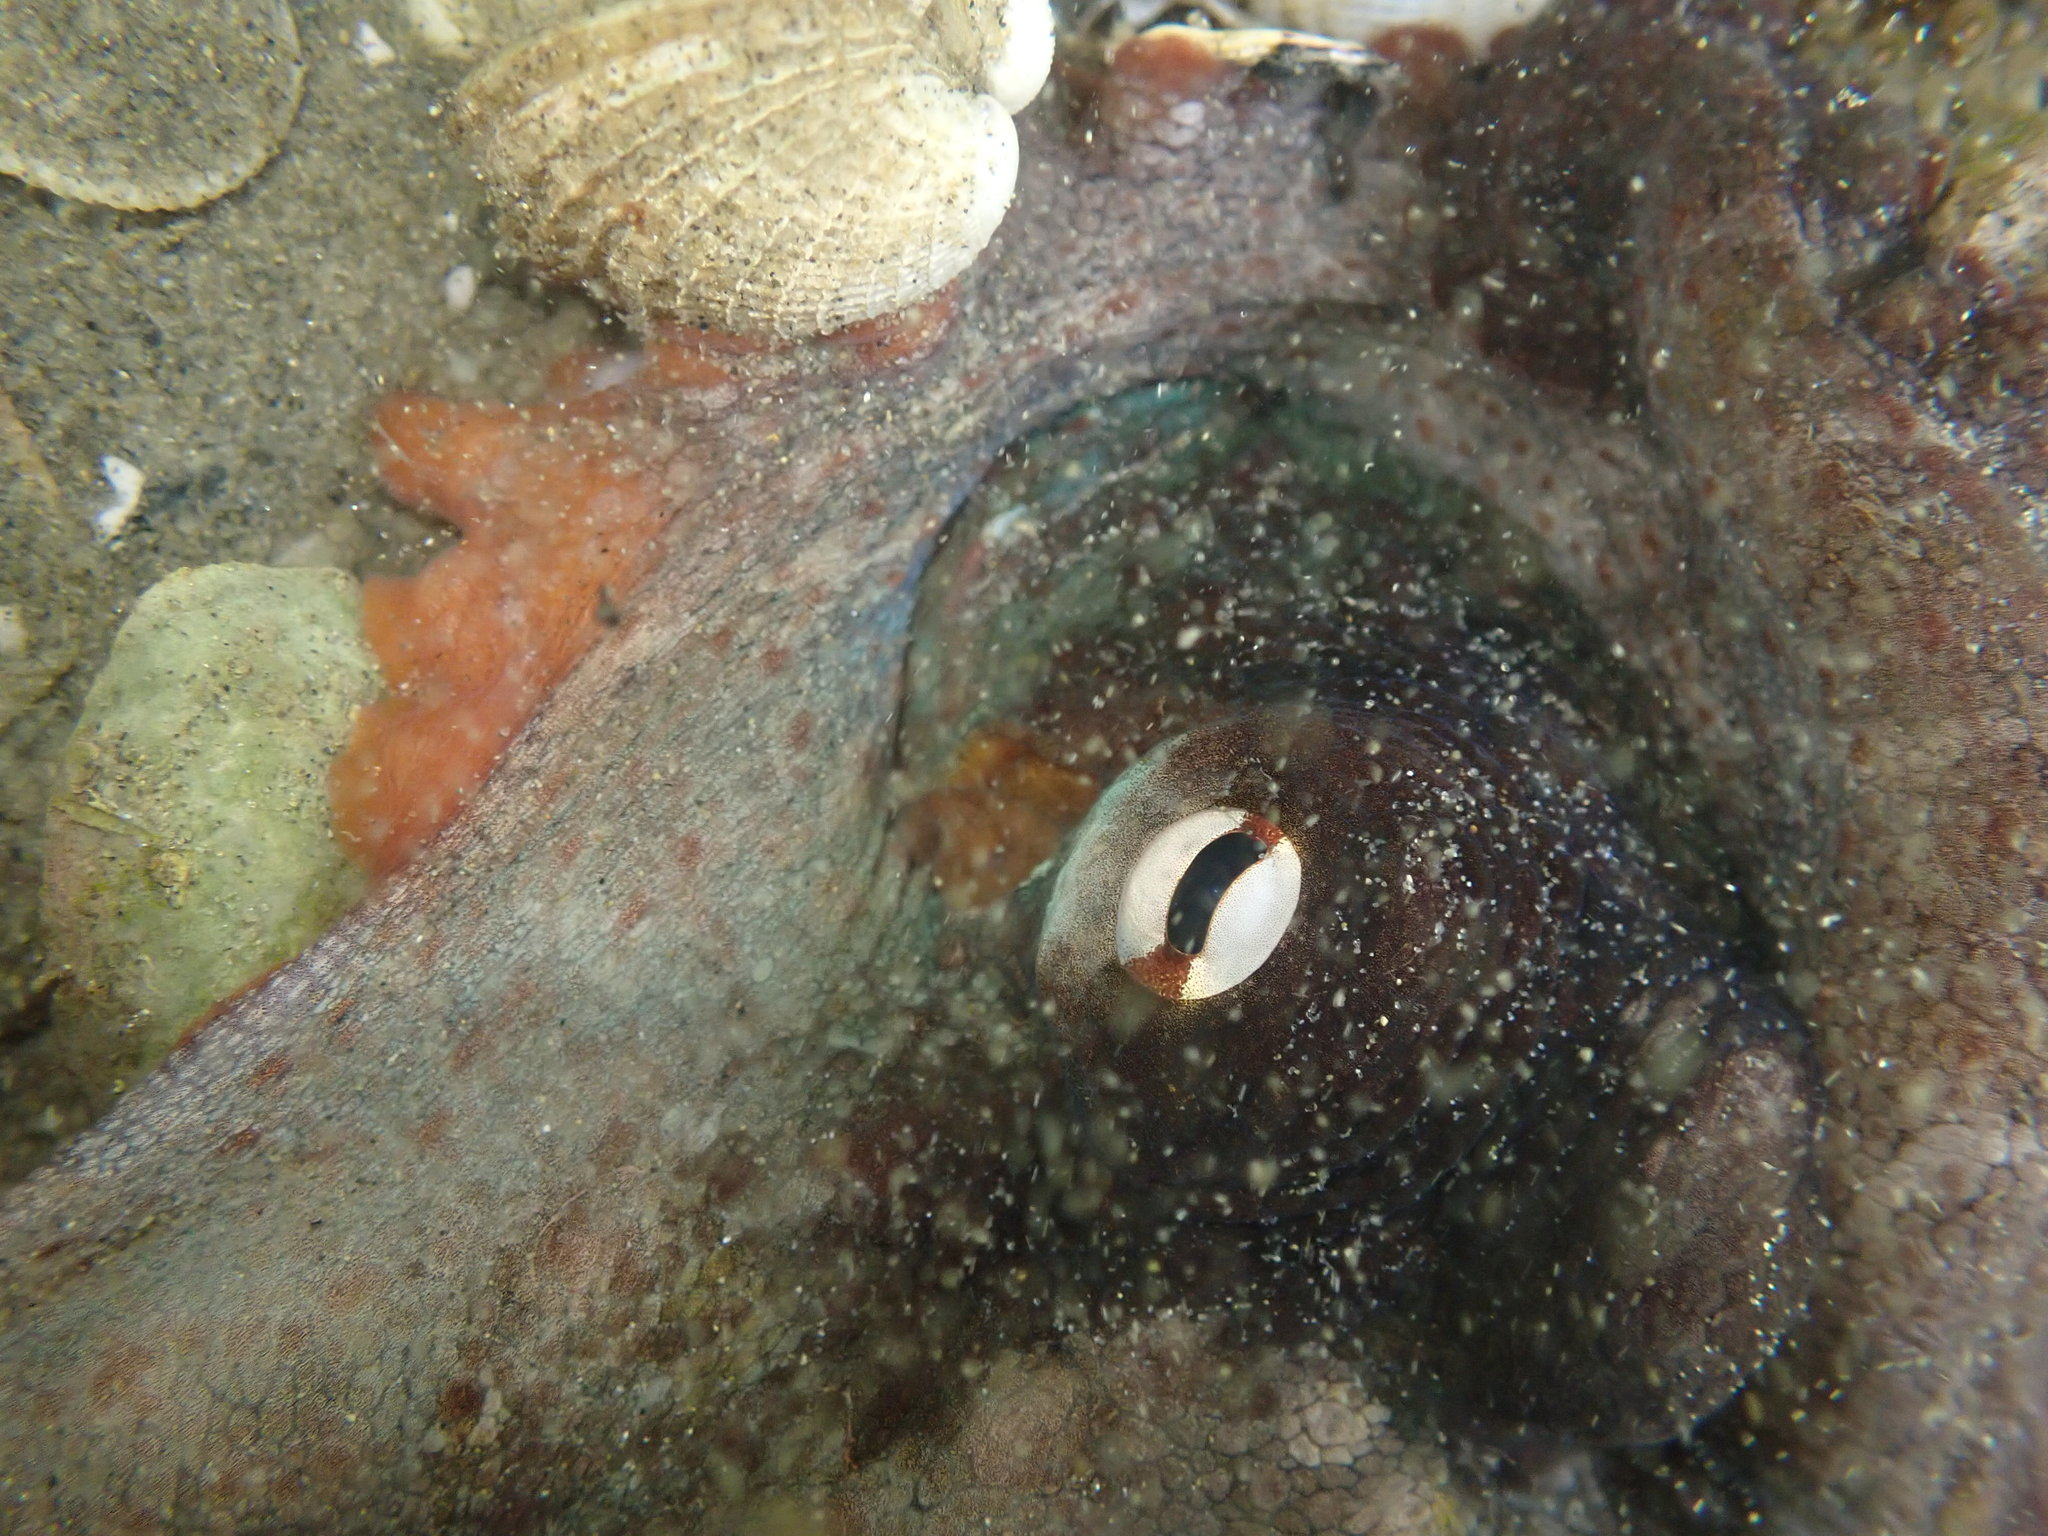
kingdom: Animalia
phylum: Mollusca
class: Cephalopoda
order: Octopoda
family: Octopodidae
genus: Octopus
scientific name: Octopus tetricus
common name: Sydney octopus
